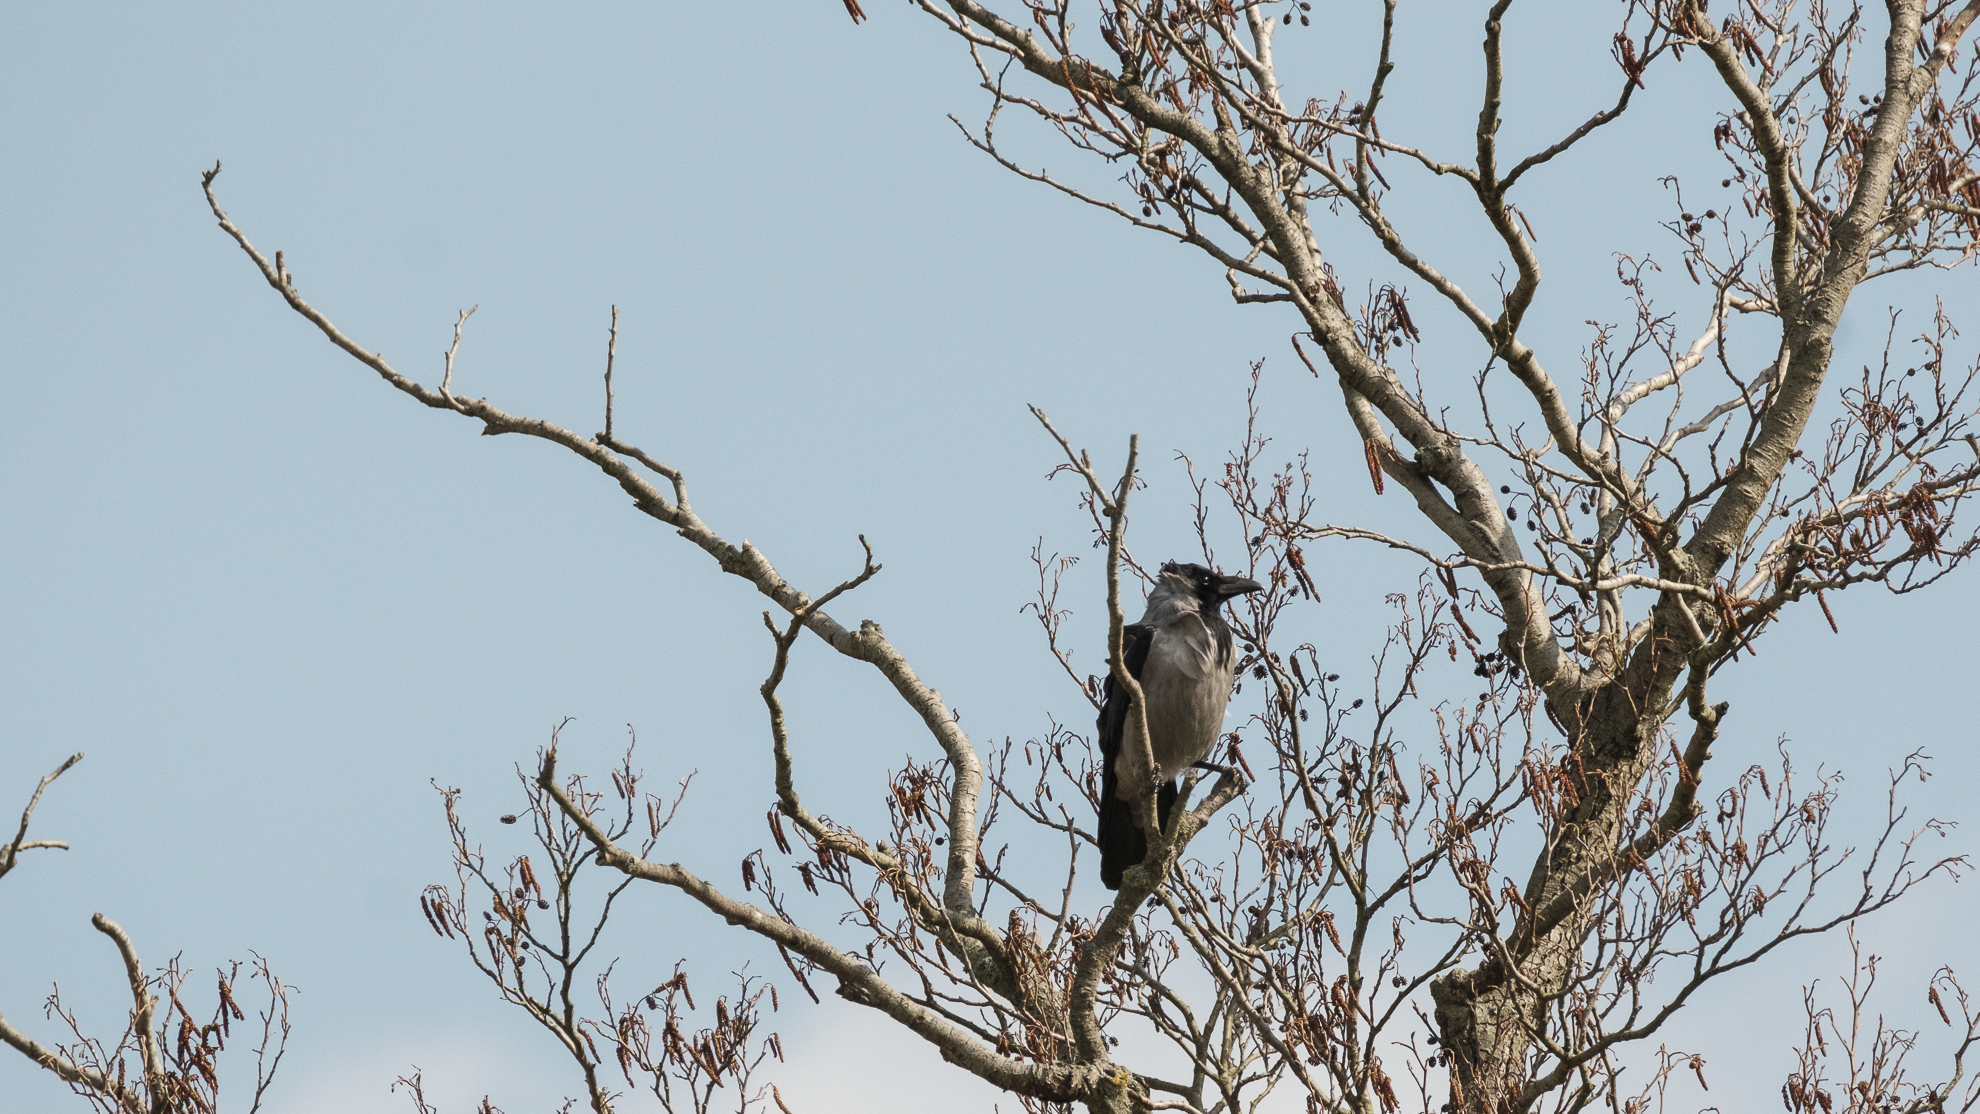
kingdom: Animalia
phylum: Chordata
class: Aves
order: Passeriformes
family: Corvidae
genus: Corvus
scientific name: Corvus cornix
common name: Hooded crow
